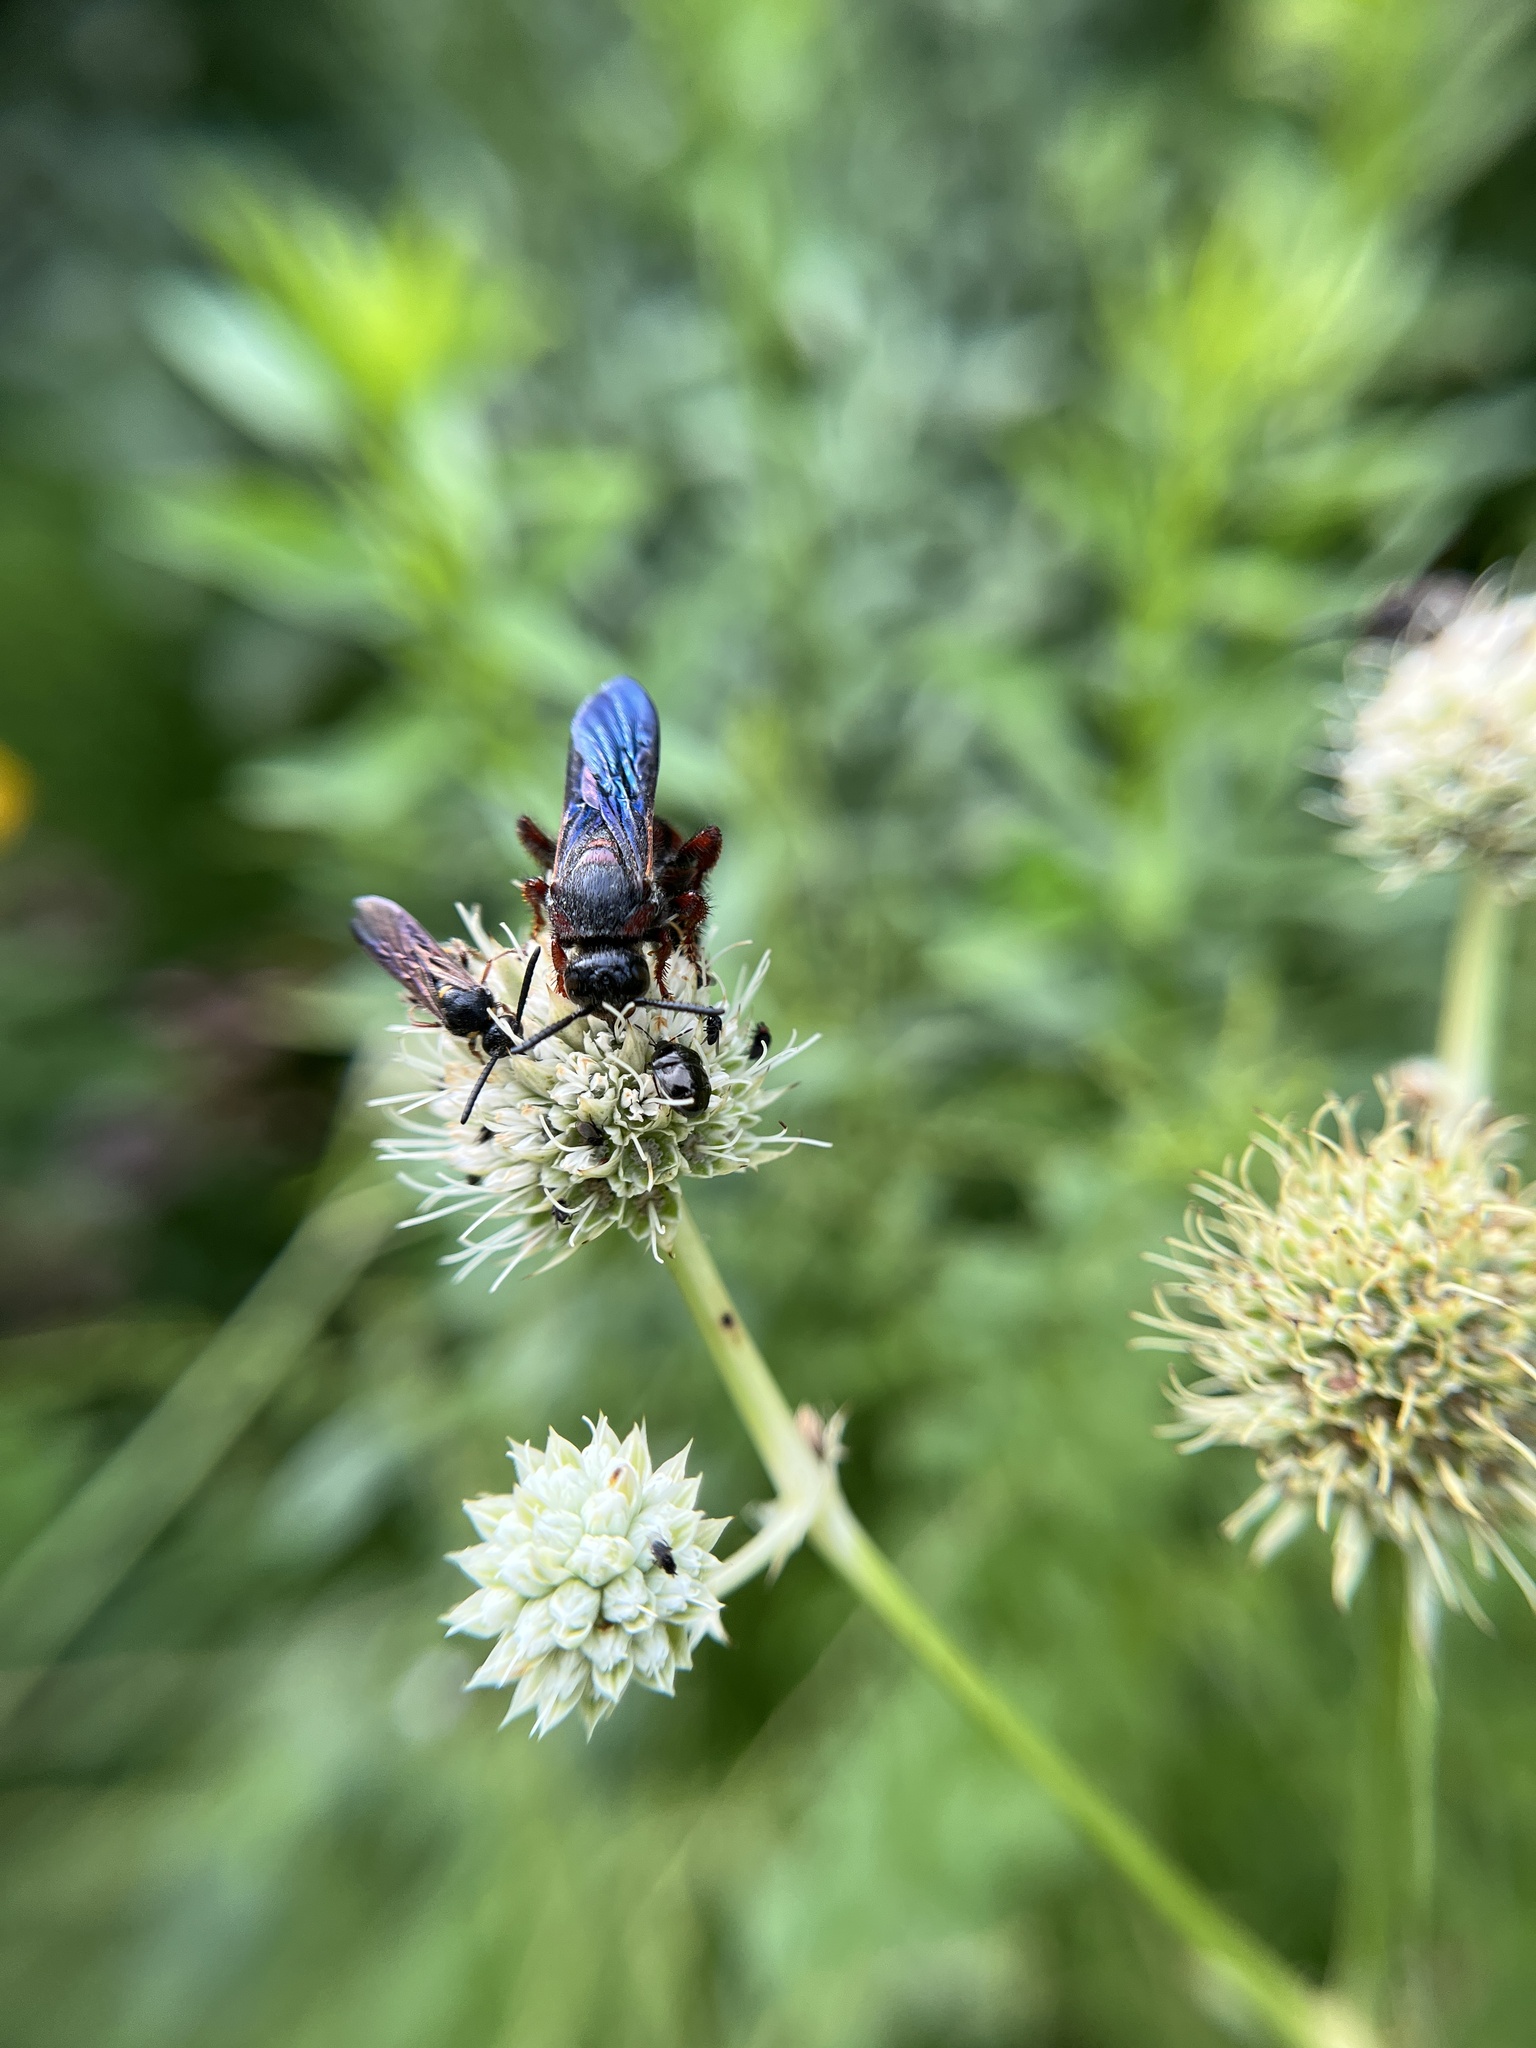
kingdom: Animalia
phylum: Arthropoda
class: Insecta
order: Hymenoptera
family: Scoliidae
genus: Scolia
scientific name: Scolia nobilitata
